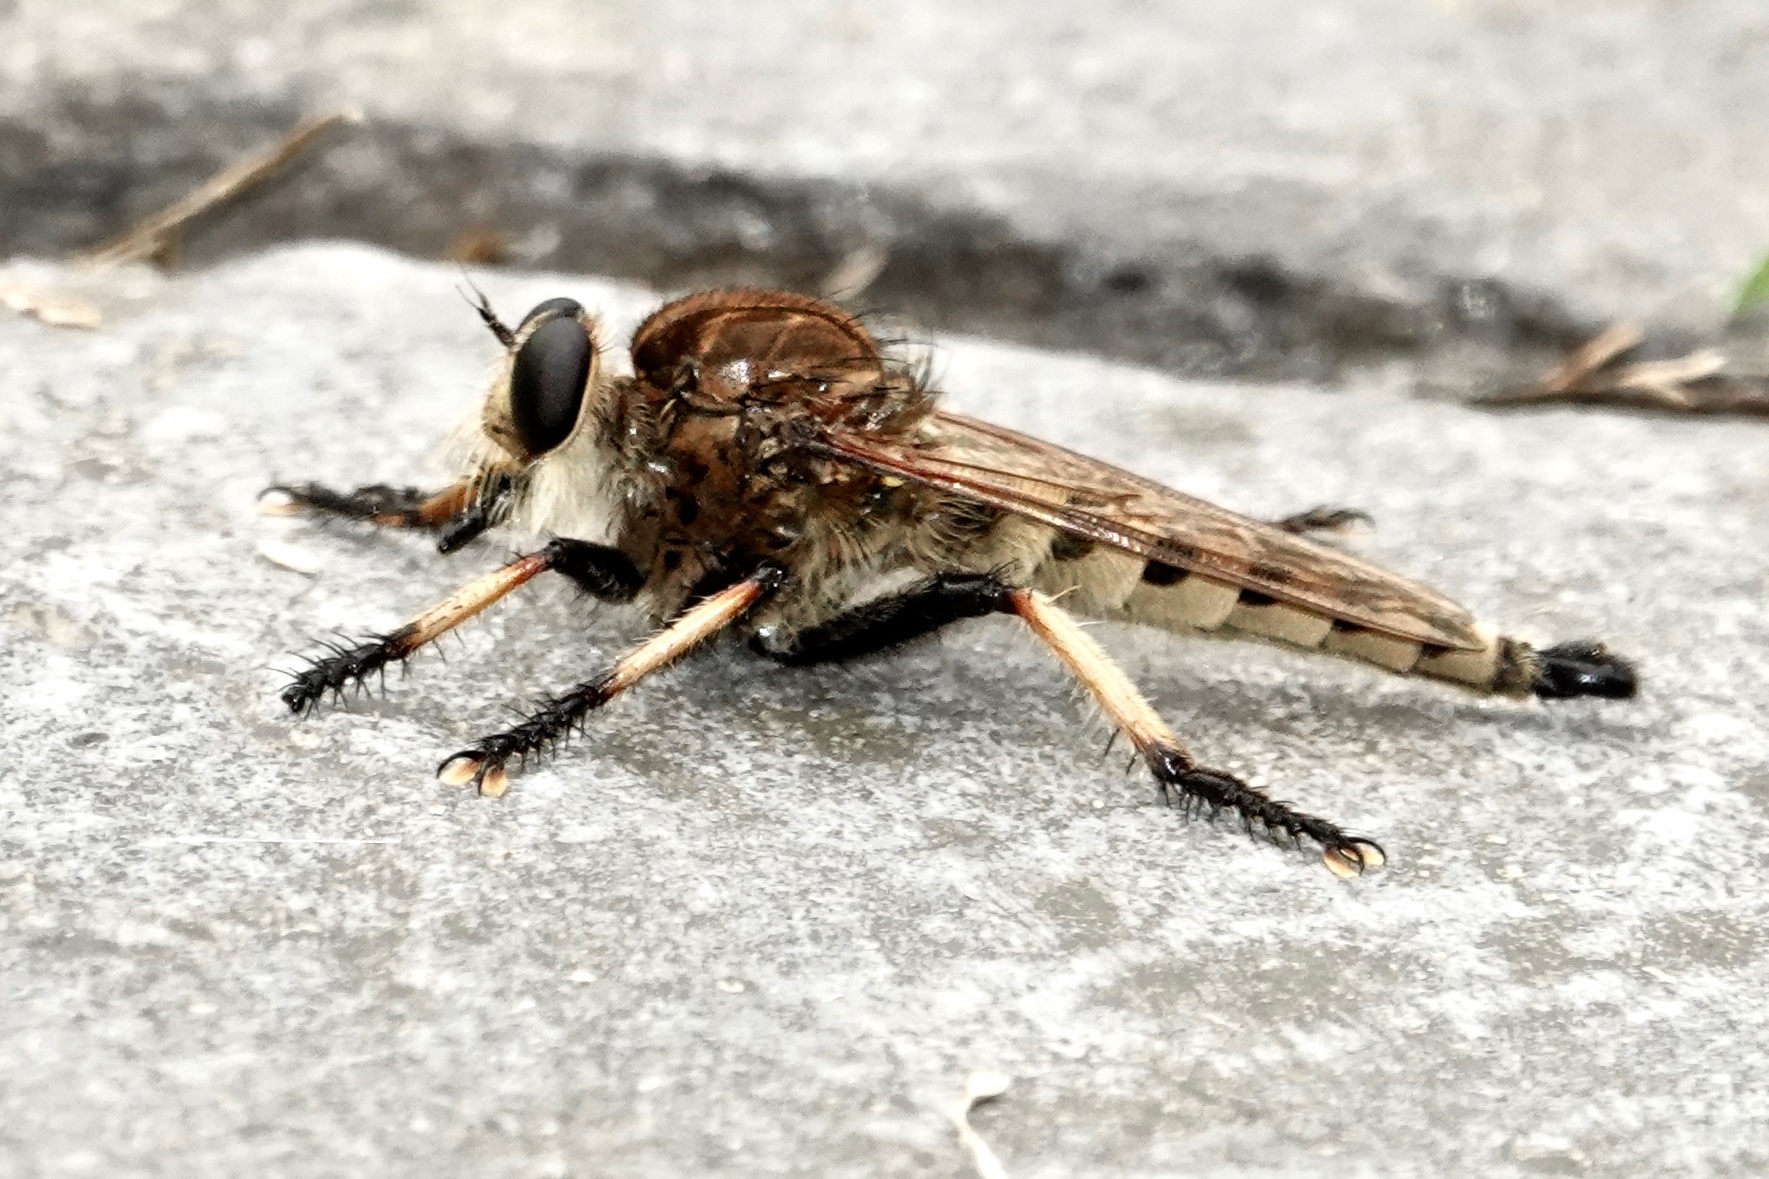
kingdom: Animalia
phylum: Arthropoda
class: Insecta
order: Diptera
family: Asilidae
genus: Promachus
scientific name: Promachus rufipes
